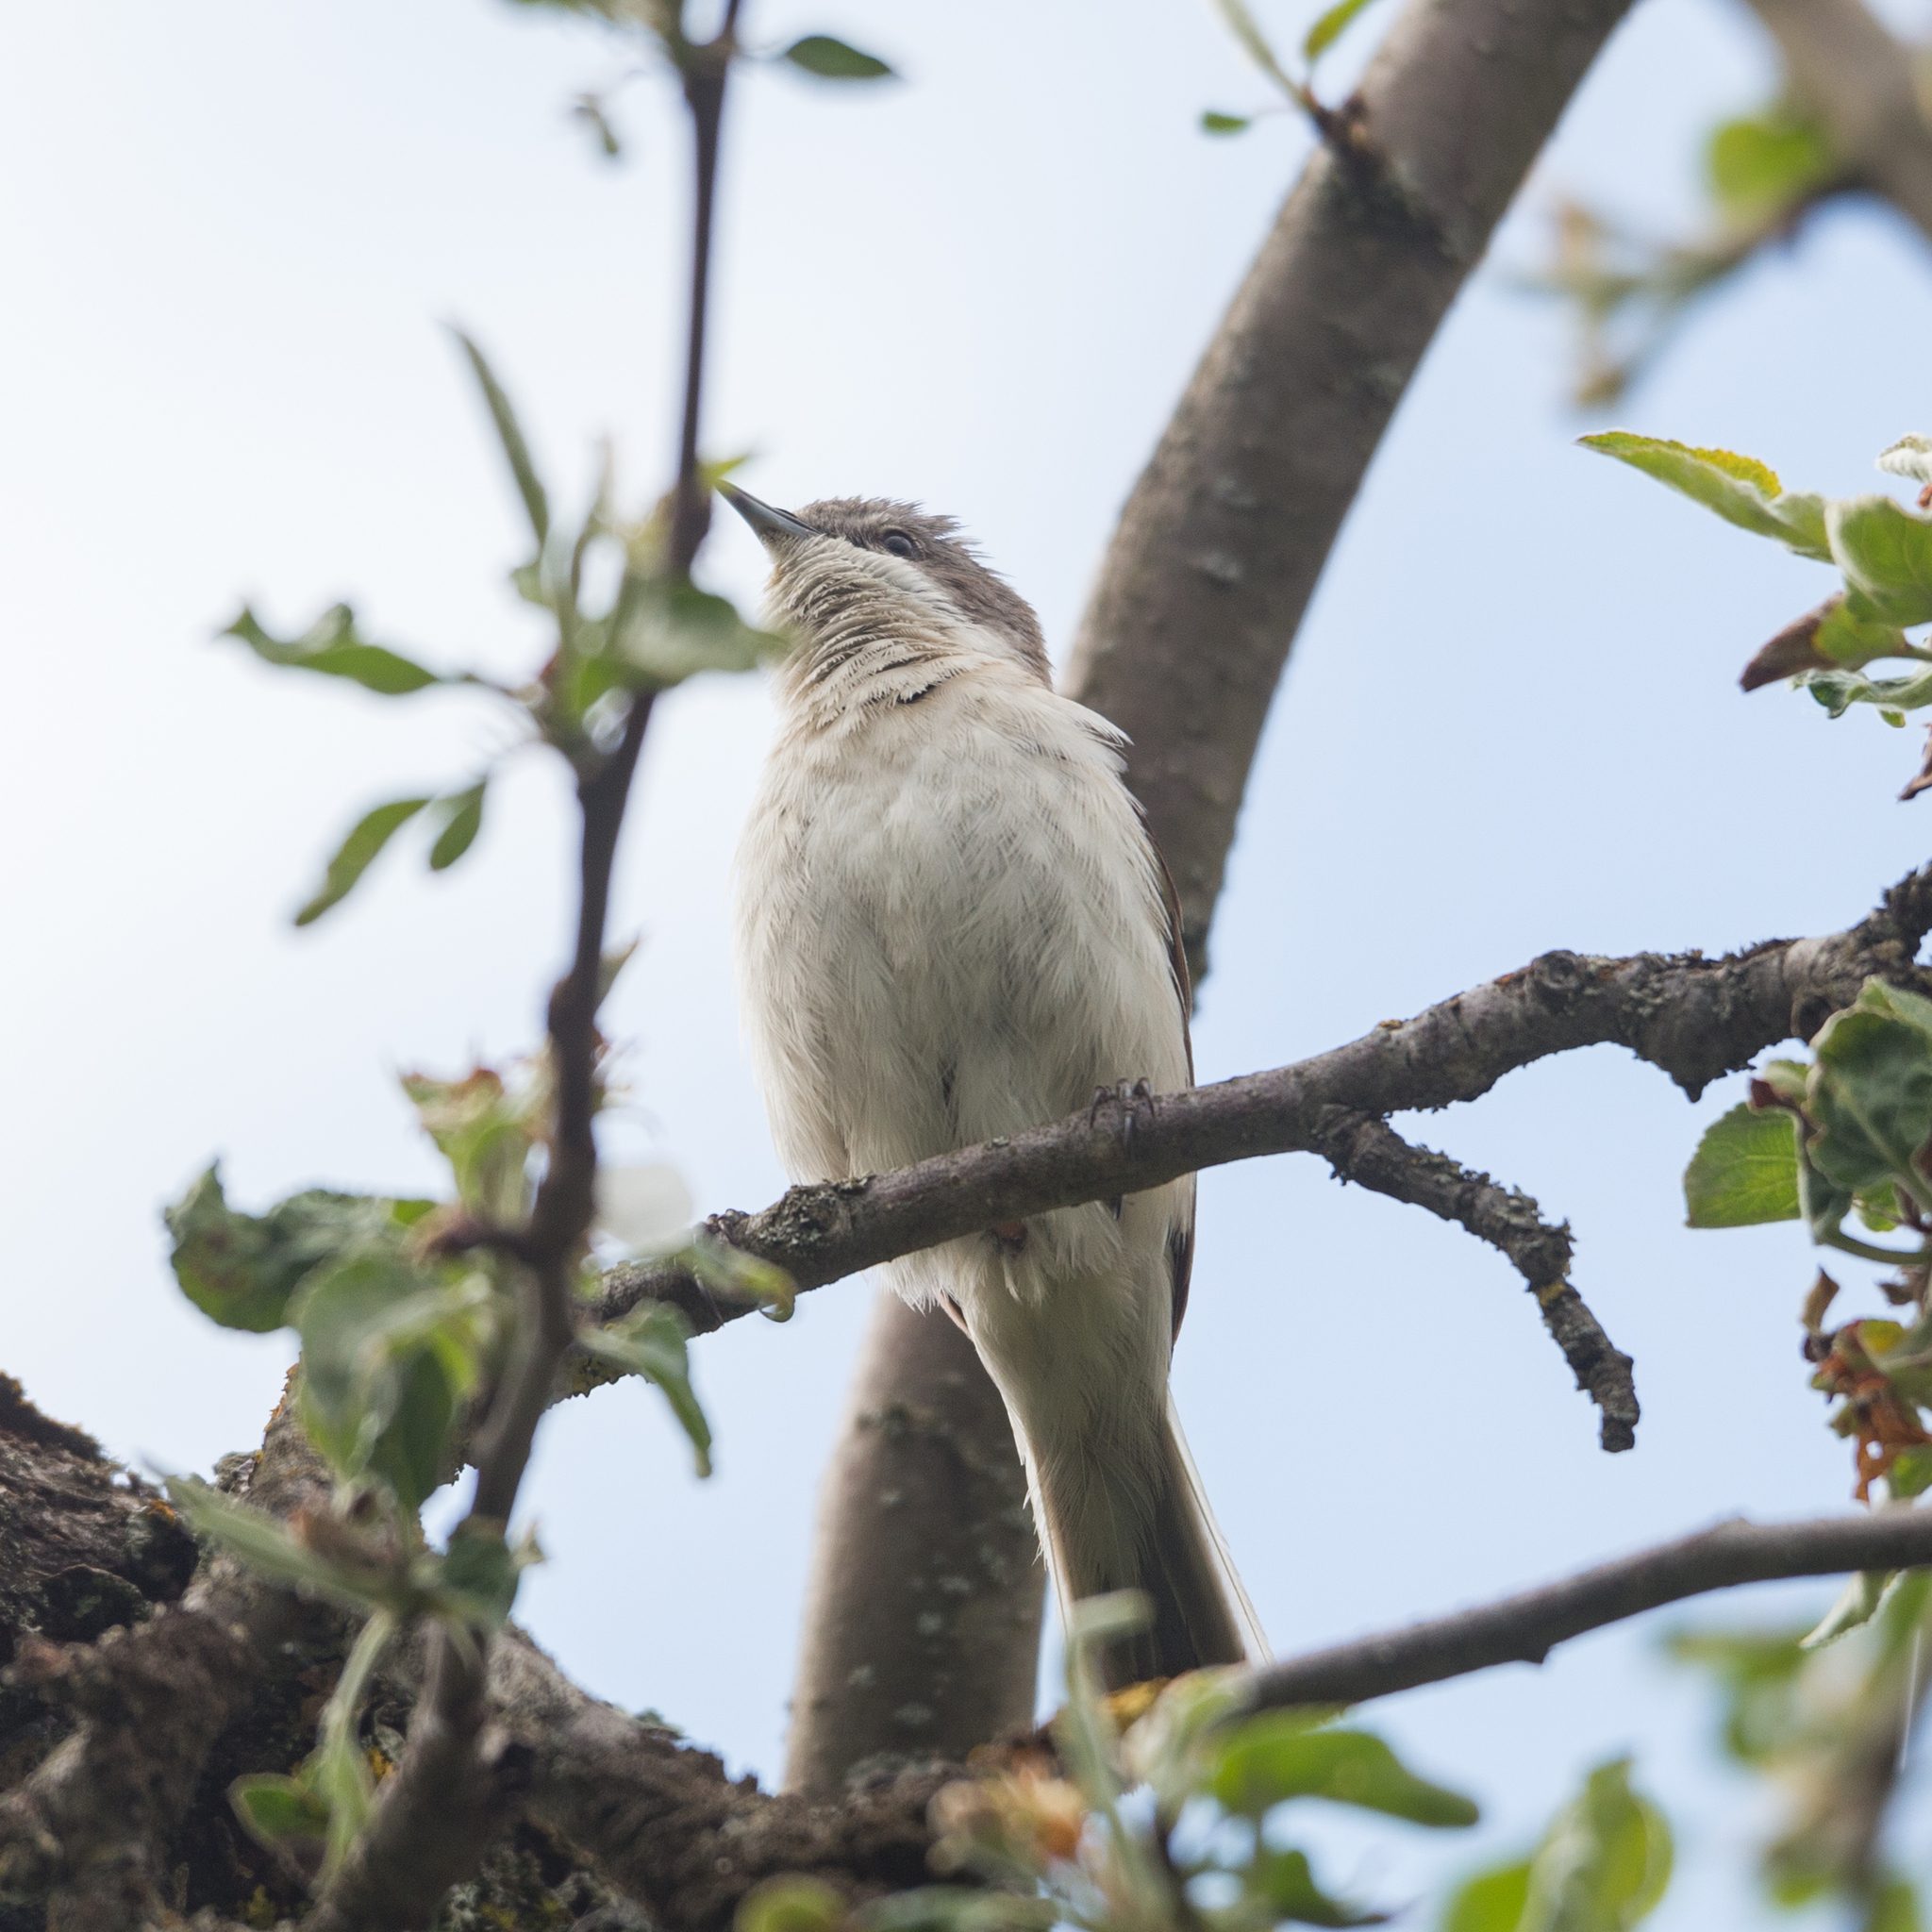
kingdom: Animalia
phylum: Chordata
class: Aves
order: Passeriformes
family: Sylviidae
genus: Sylvia
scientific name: Sylvia curruca
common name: Lesser whitethroat
